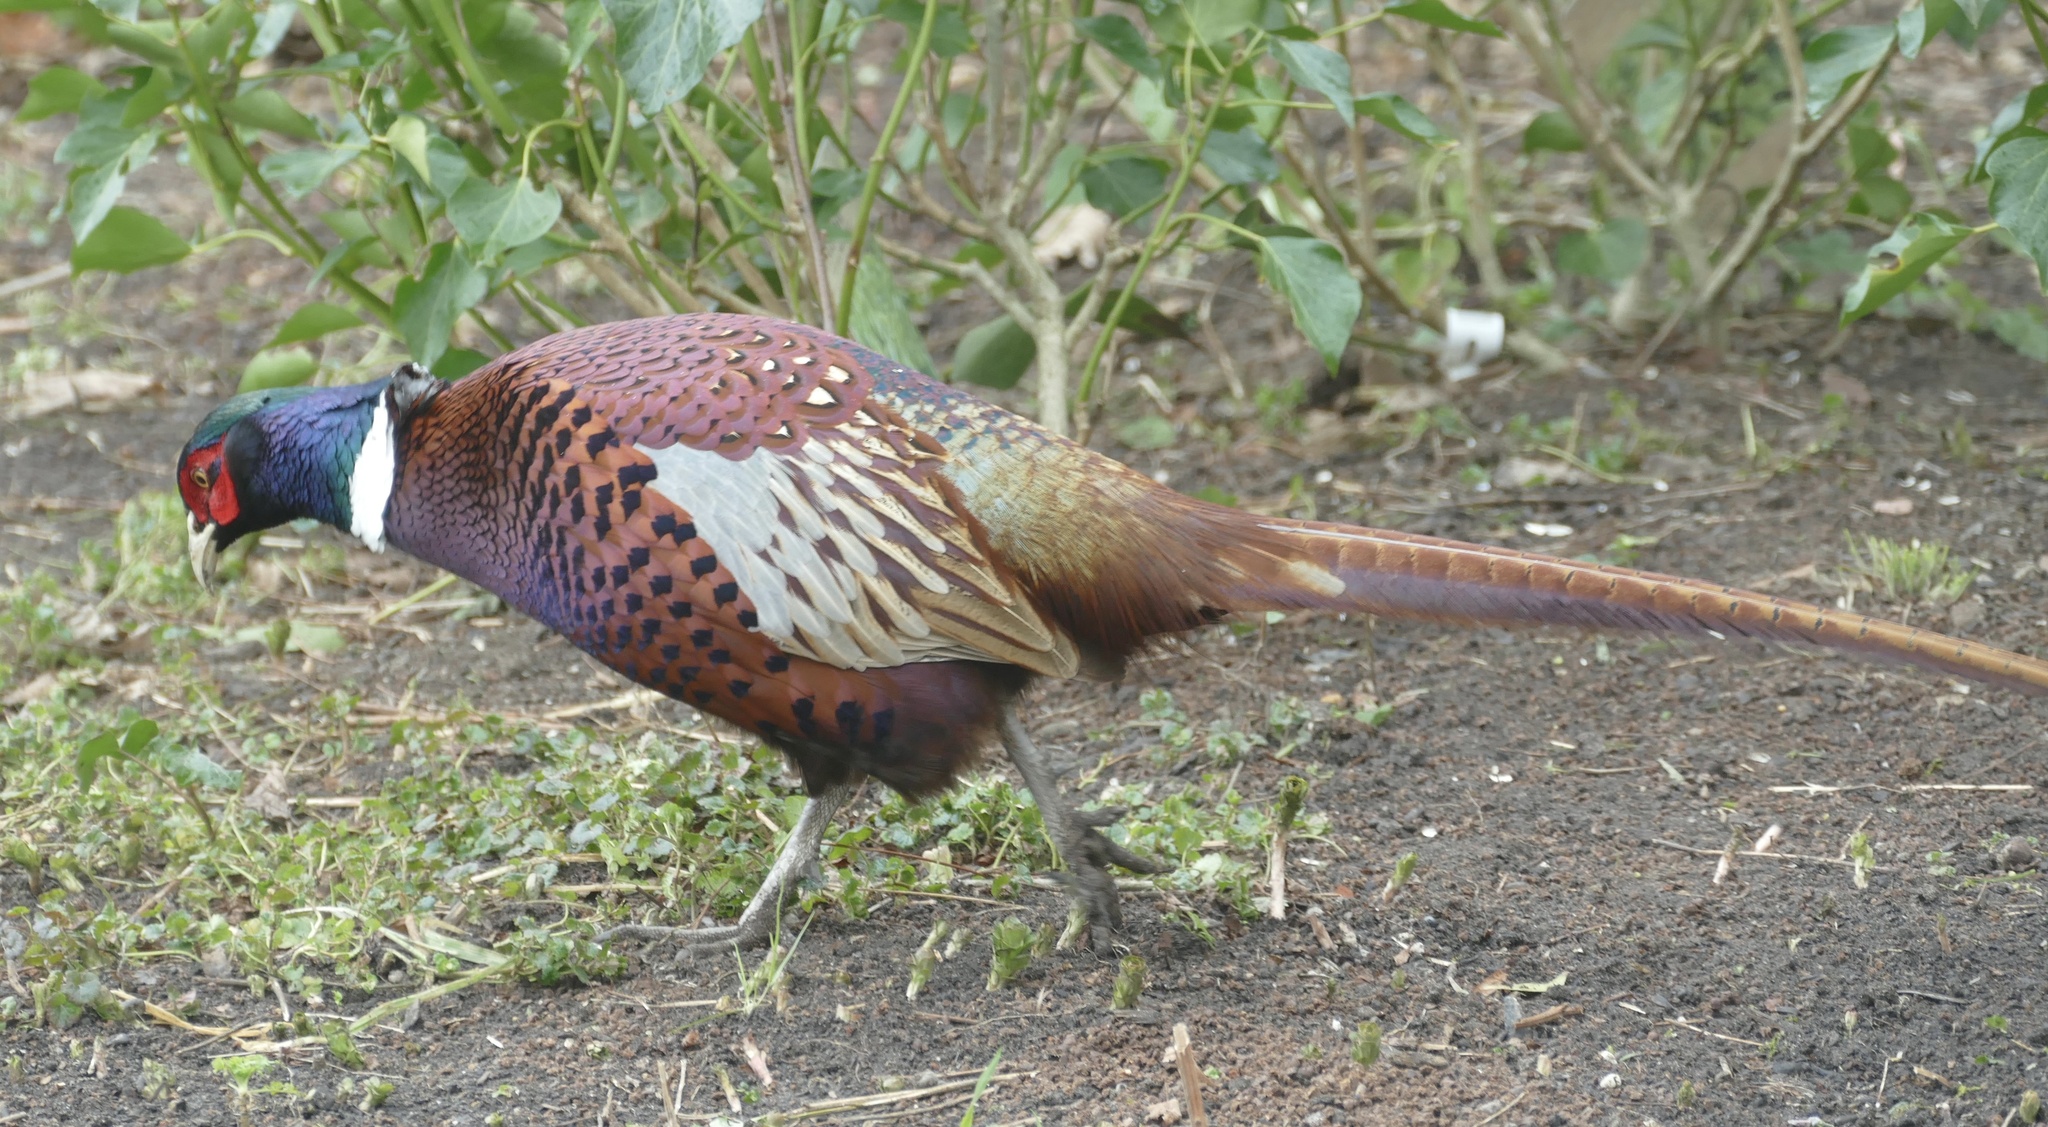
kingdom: Animalia
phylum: Chordata
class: Aves
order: Galliformes
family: Phasianidae
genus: Phasianus
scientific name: Phasianus colchicus
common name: Common pheasant
